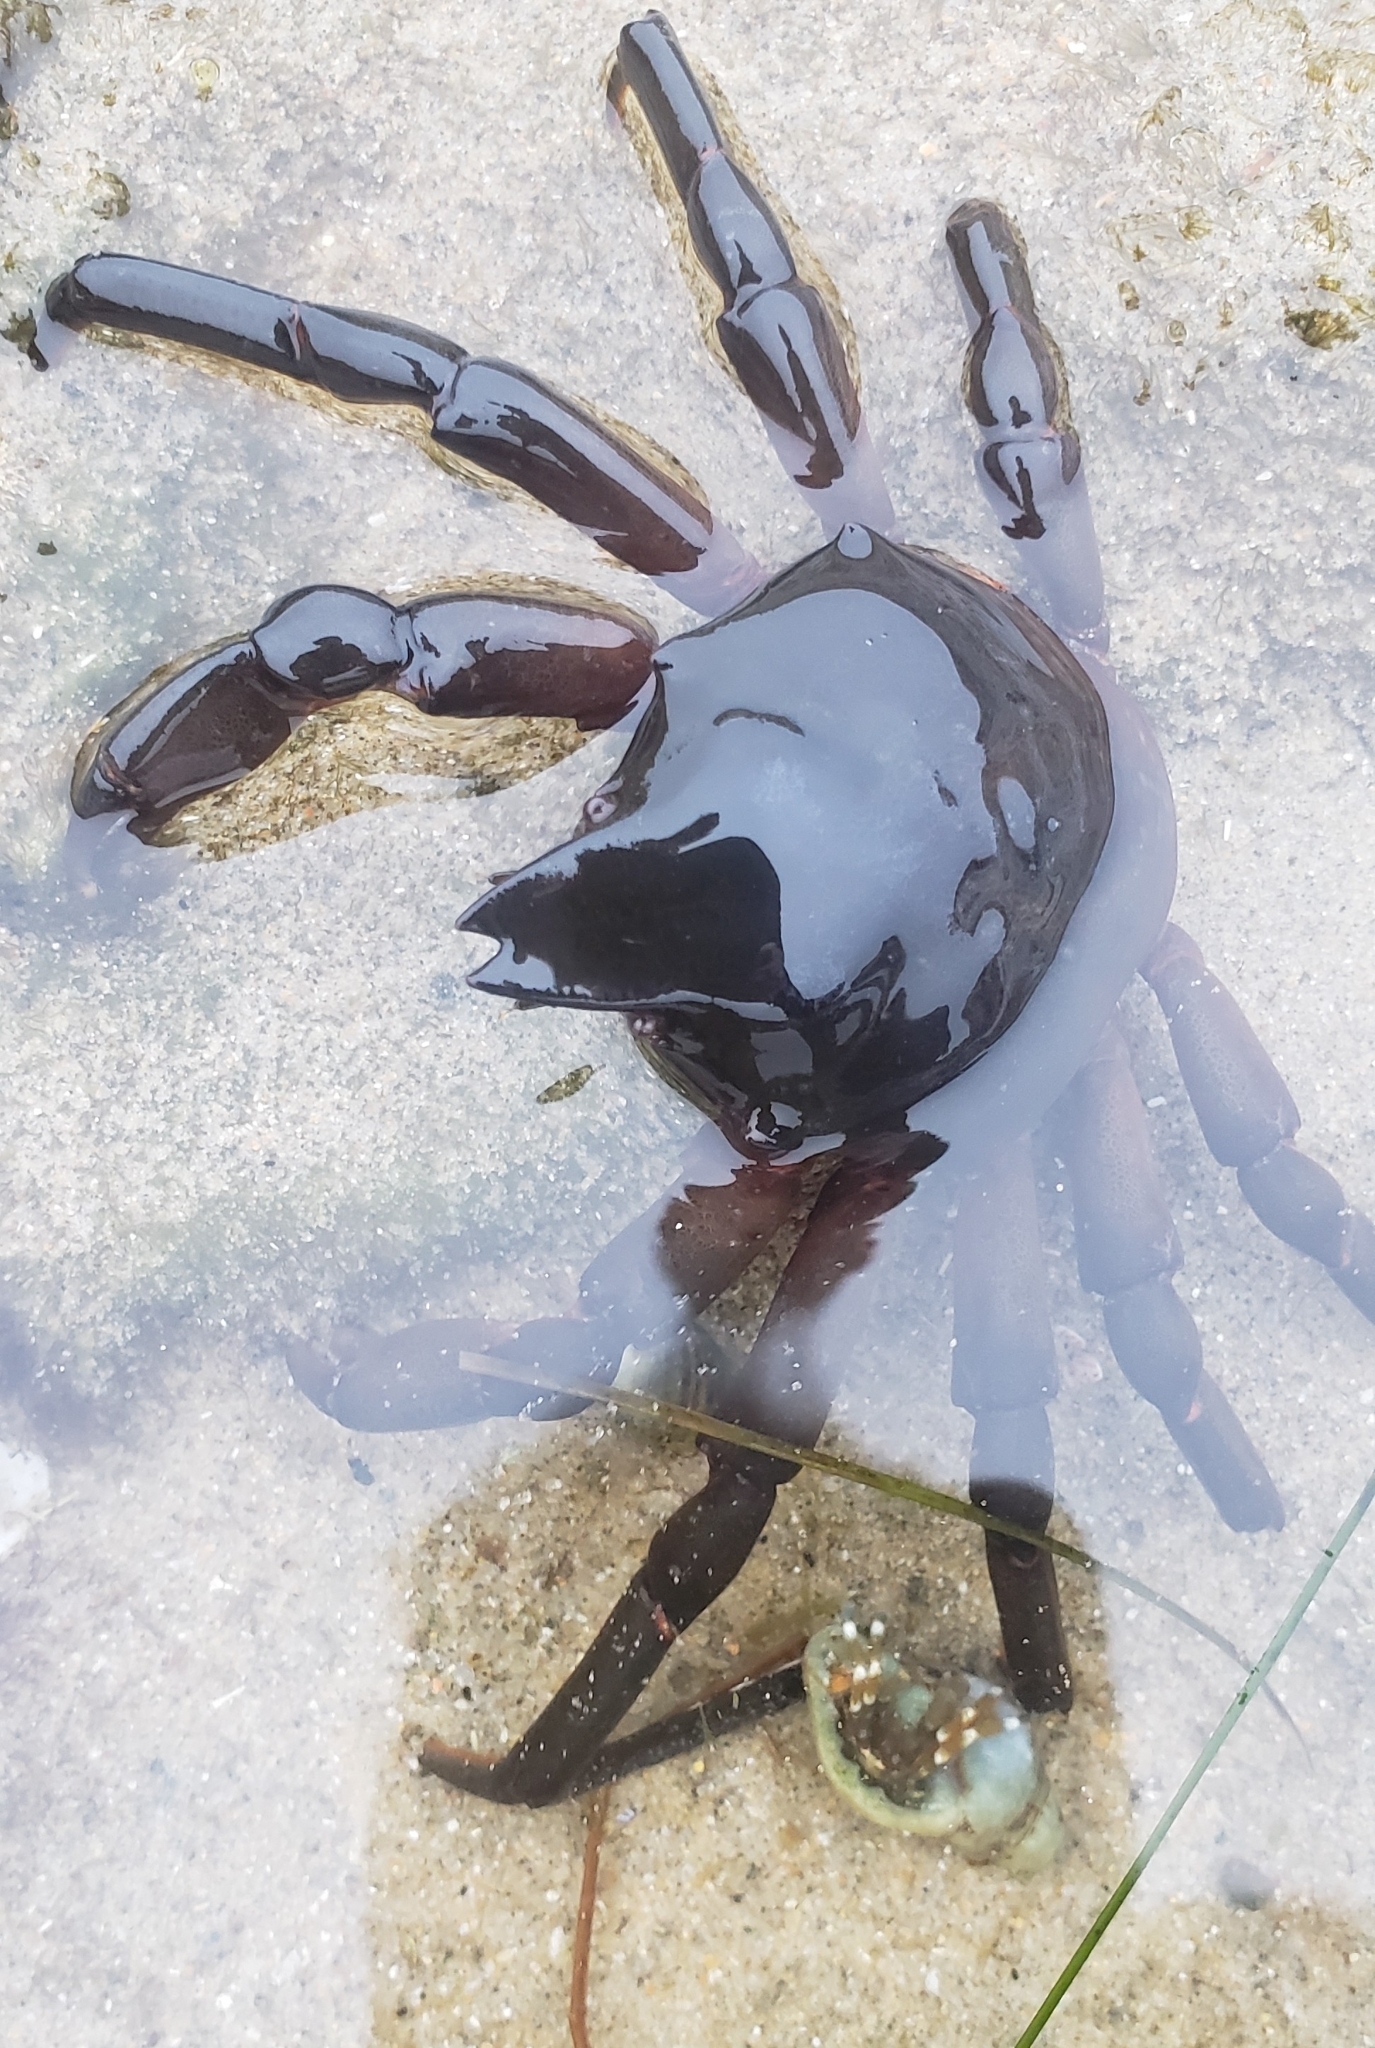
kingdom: Animalia
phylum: Arthropoda
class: Malacostraca
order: Decapoda
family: Epialtidae
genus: Taliepus
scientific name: Taliepus nuttallii
